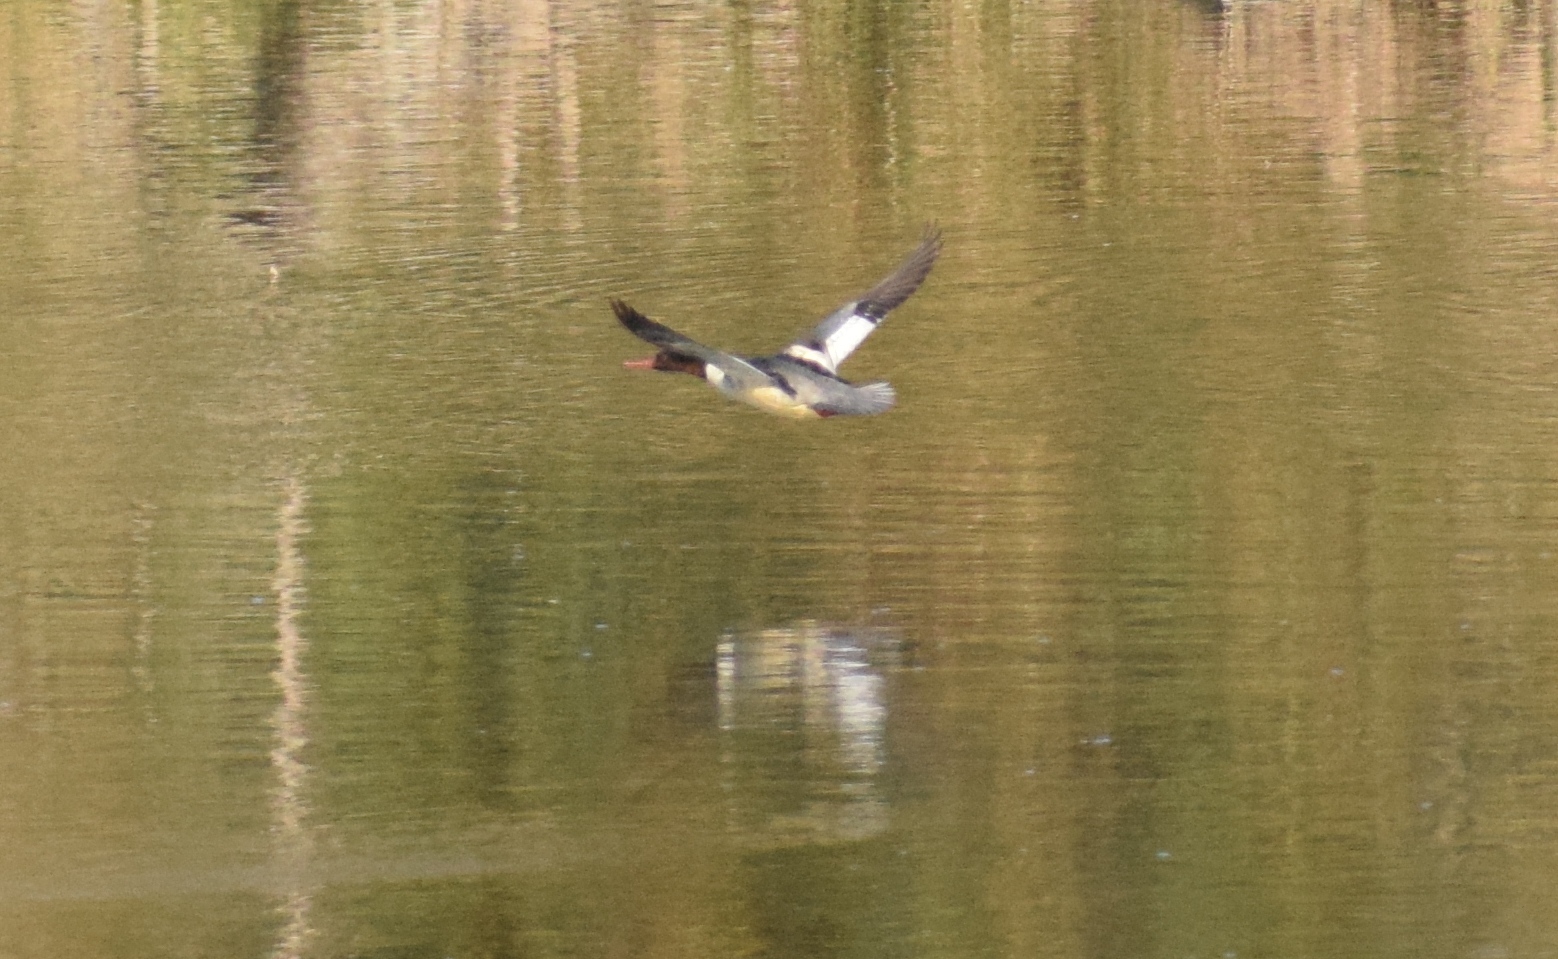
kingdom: Animalia
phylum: Chordata
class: Aves
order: Anseriformes
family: Anatidae
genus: Mergus
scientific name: Mergus merganser
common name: Common merganser
